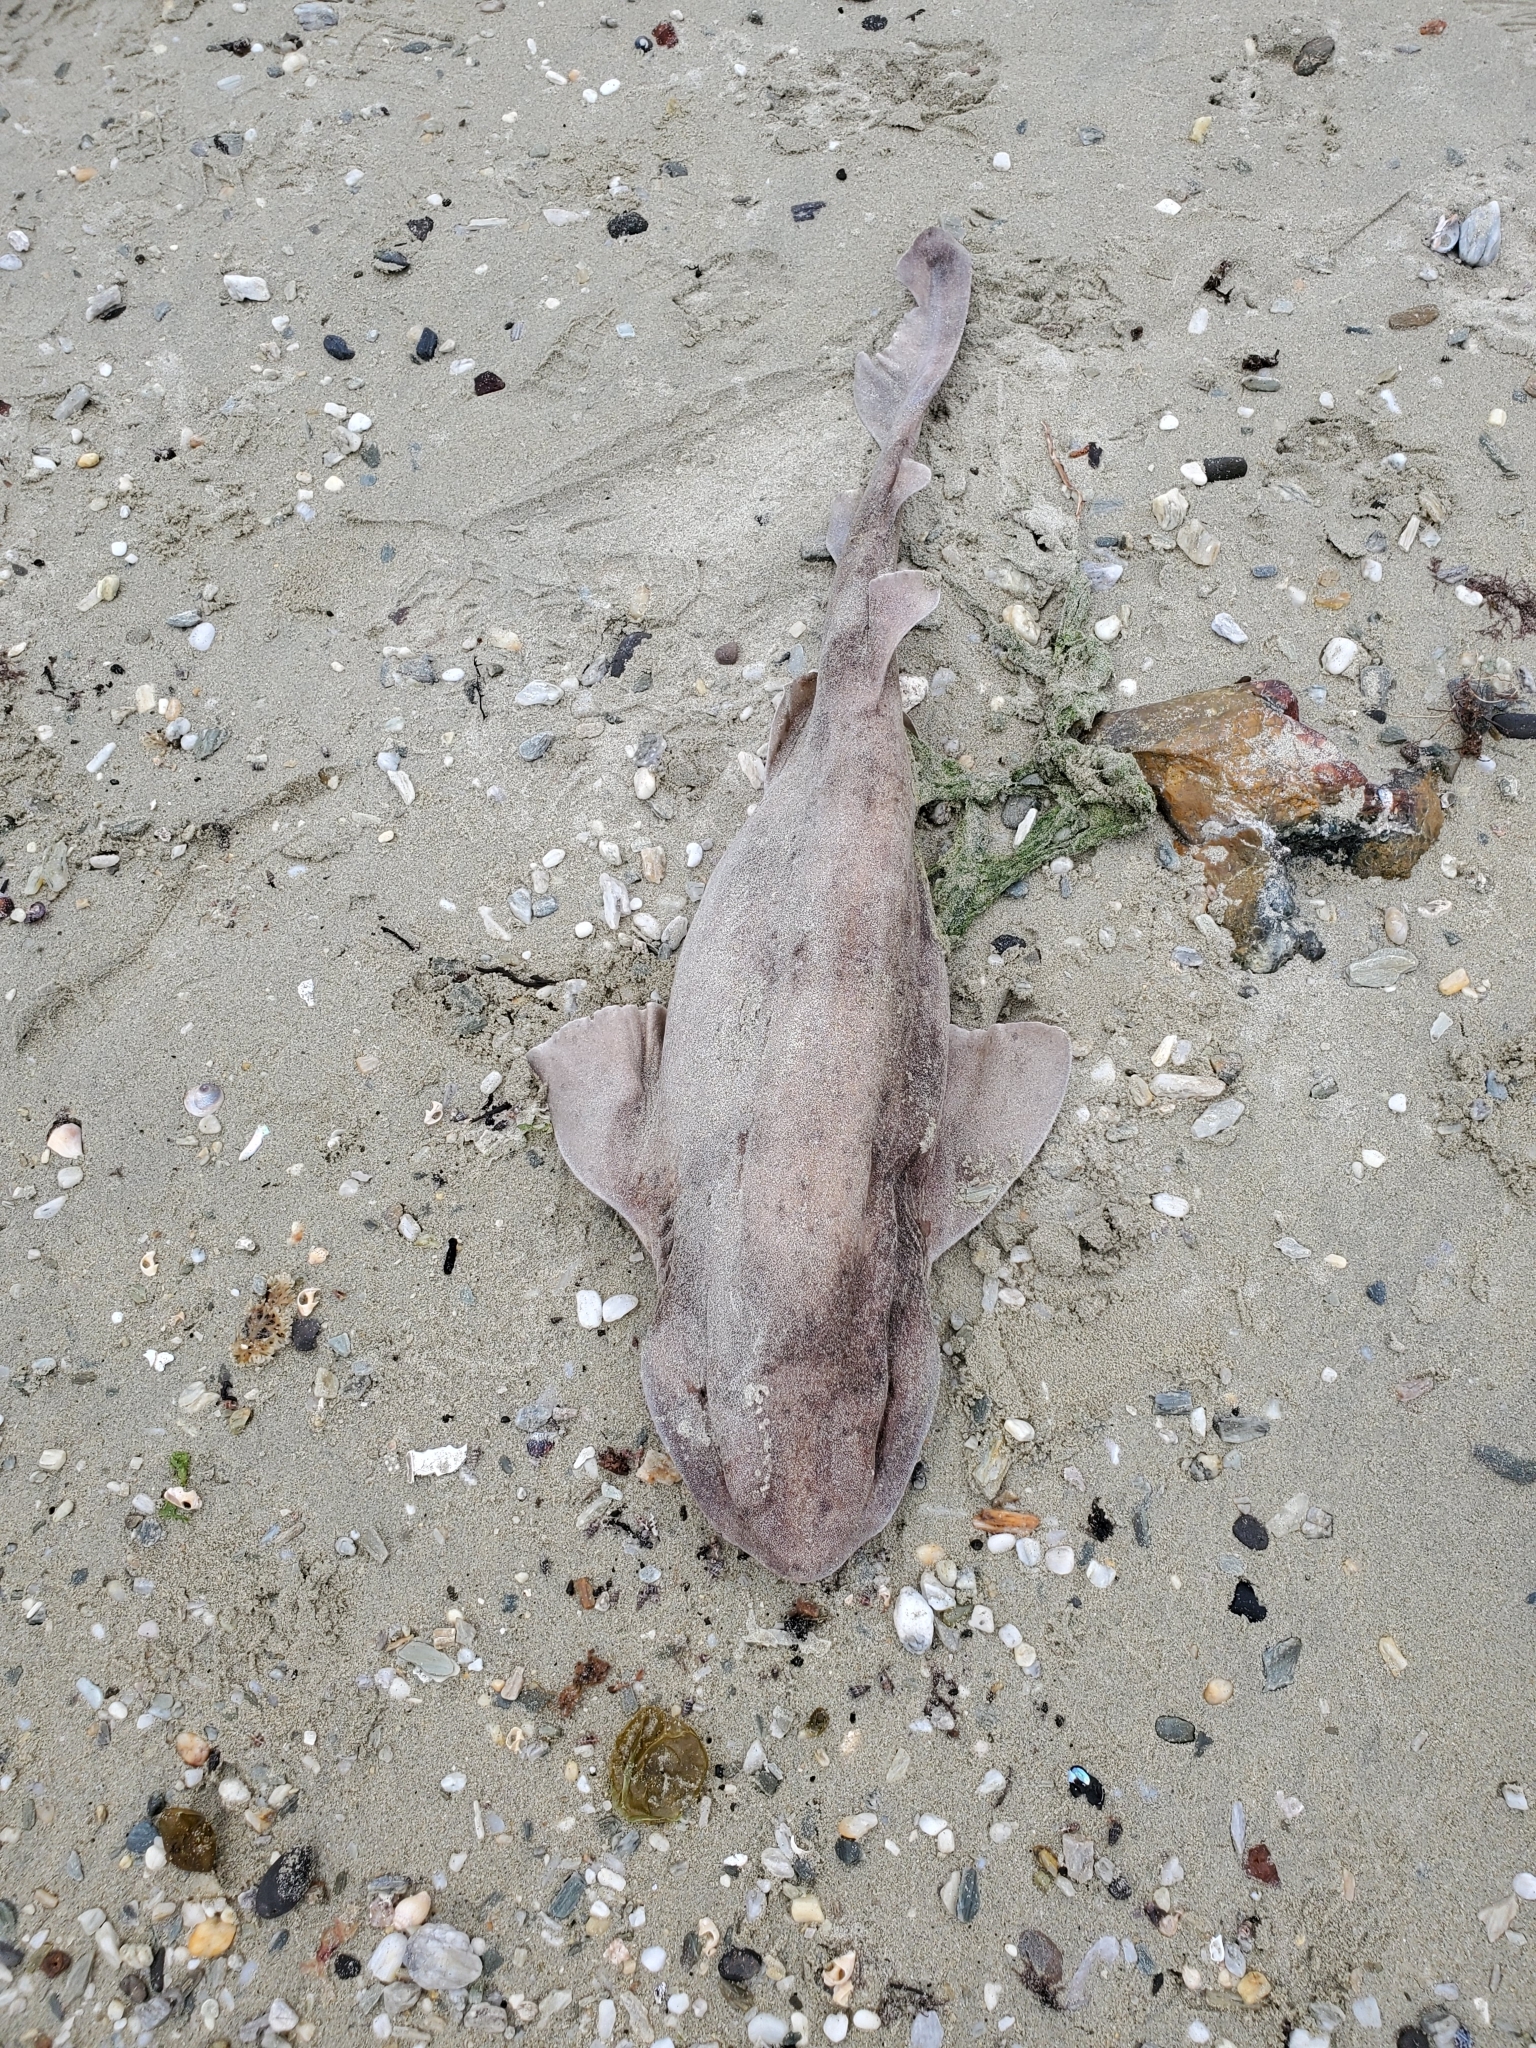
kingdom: Animalia
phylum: Chordata
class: Elasmobranchii
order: Carcharhiniformes
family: Scyliorhinidae
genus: Cephaloscyllium
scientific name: Cephaloscyllium isabellum
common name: Carpet shark
